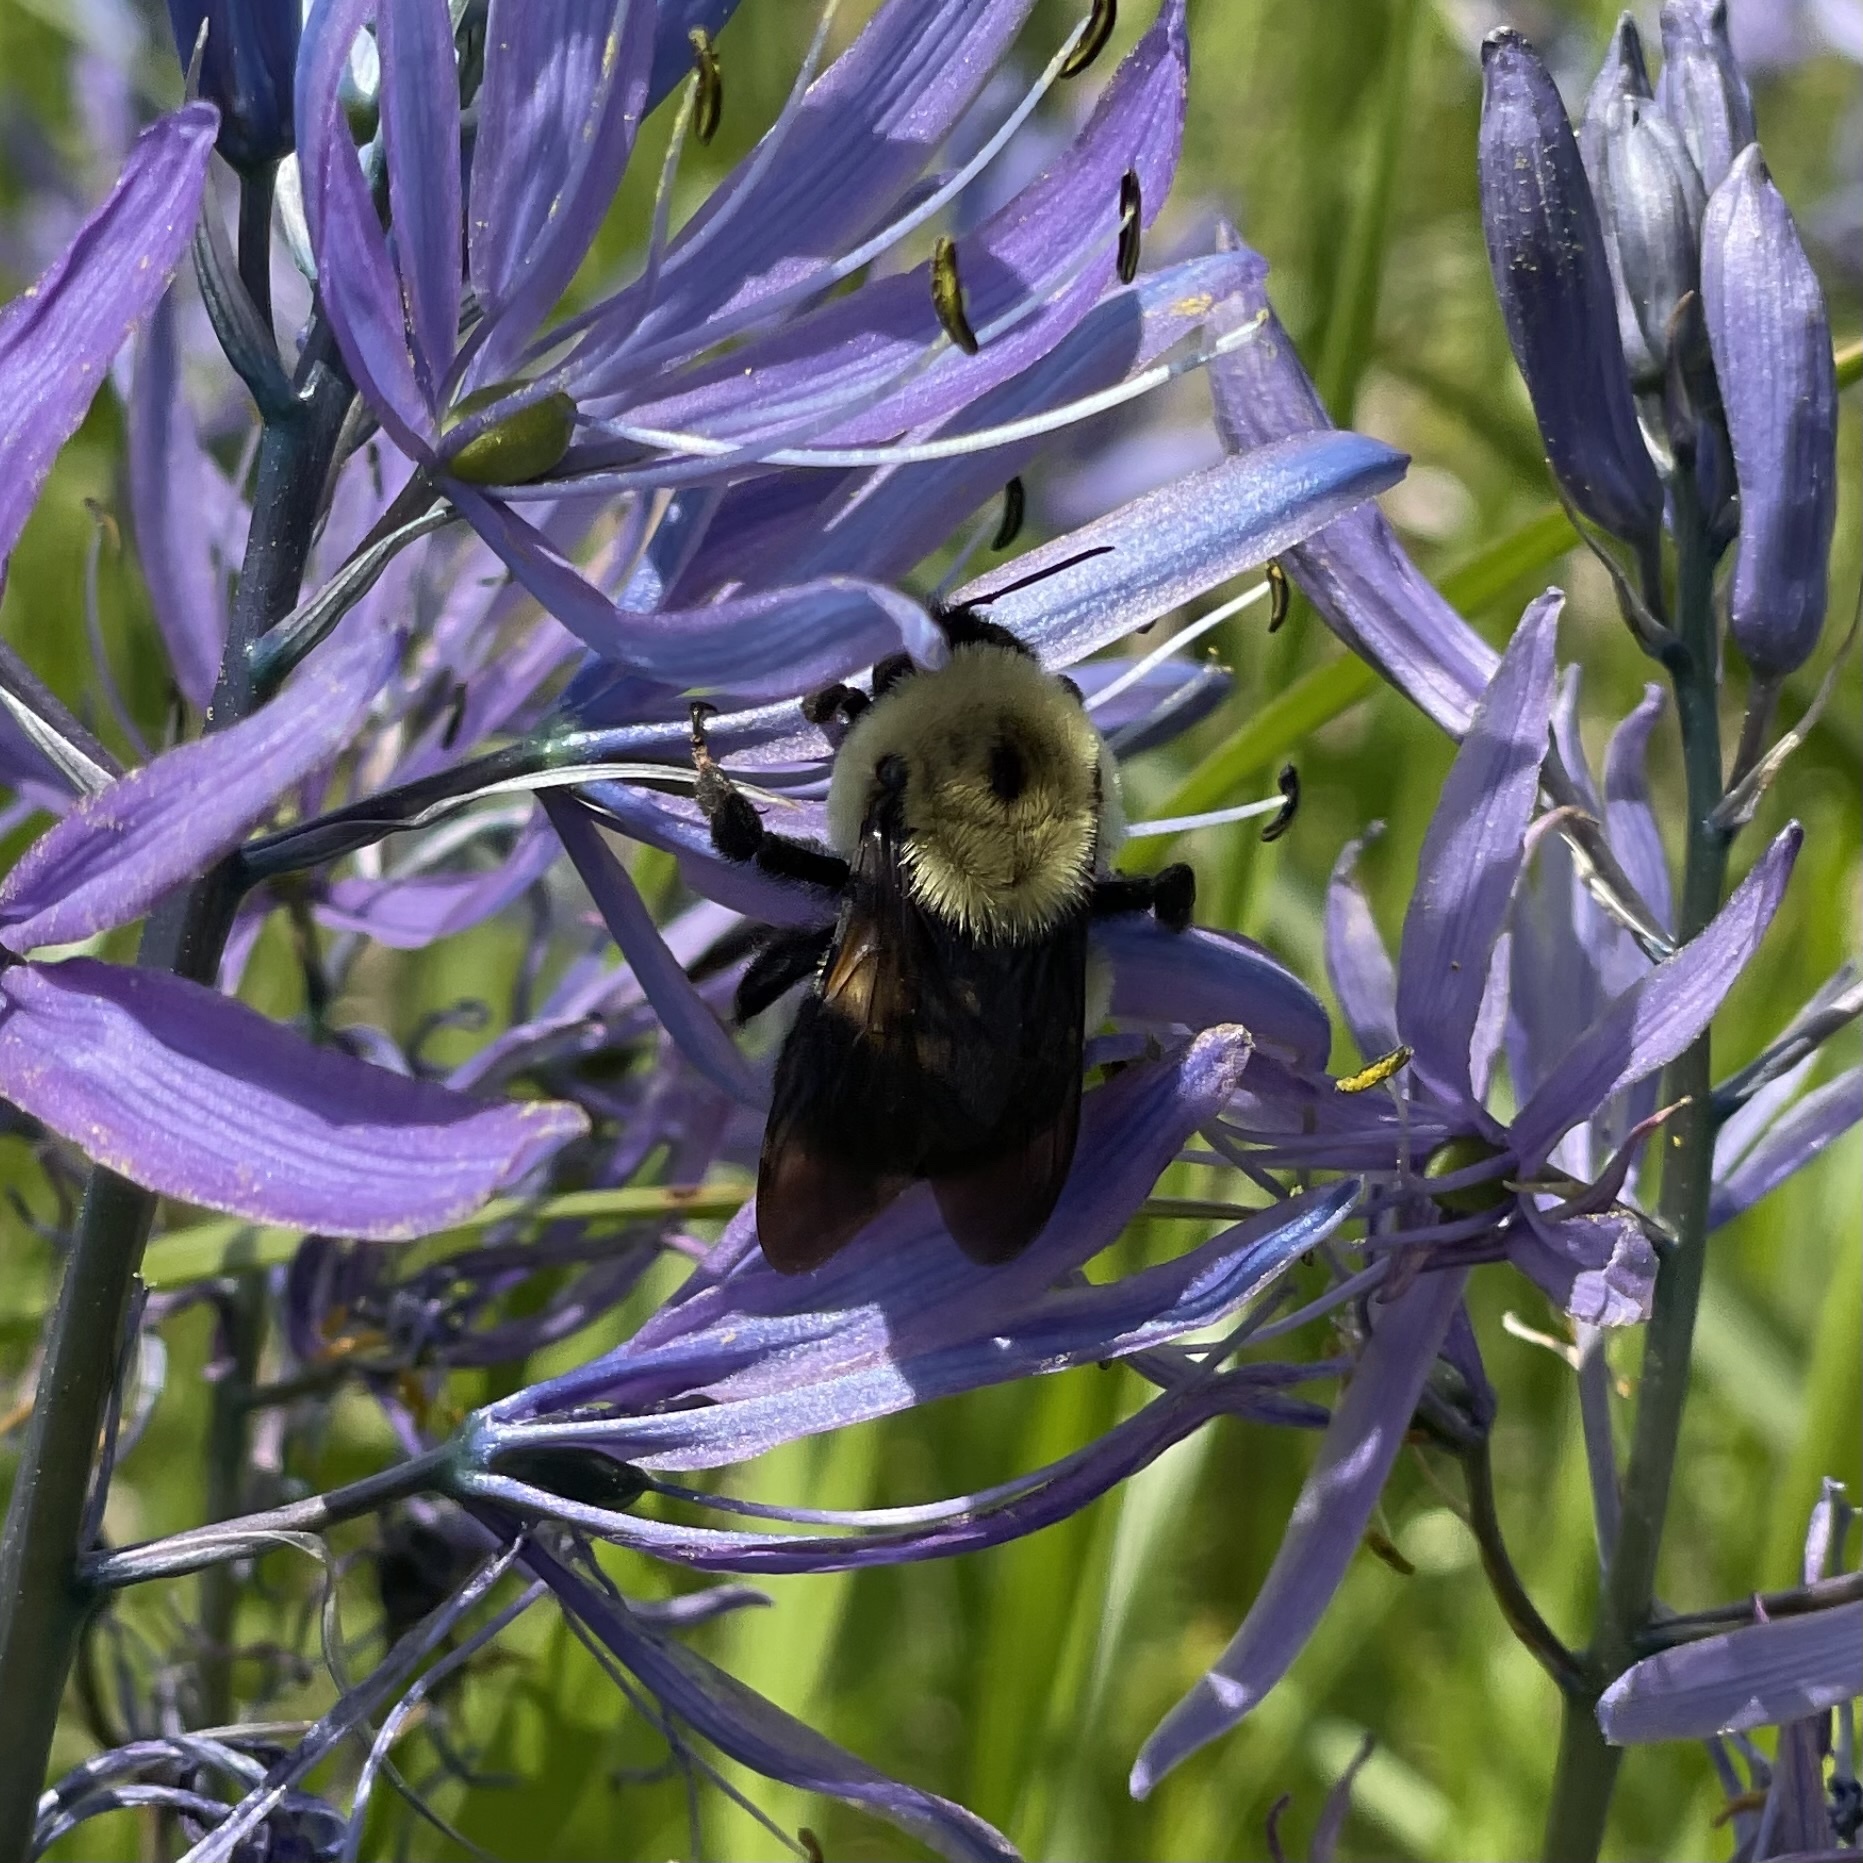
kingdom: Animalia
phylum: Arthropoda
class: Insecta
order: Hymenoptera
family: Apidae
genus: Bombus
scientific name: Bombus griseocollis
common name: Brown-belted bumble bee
